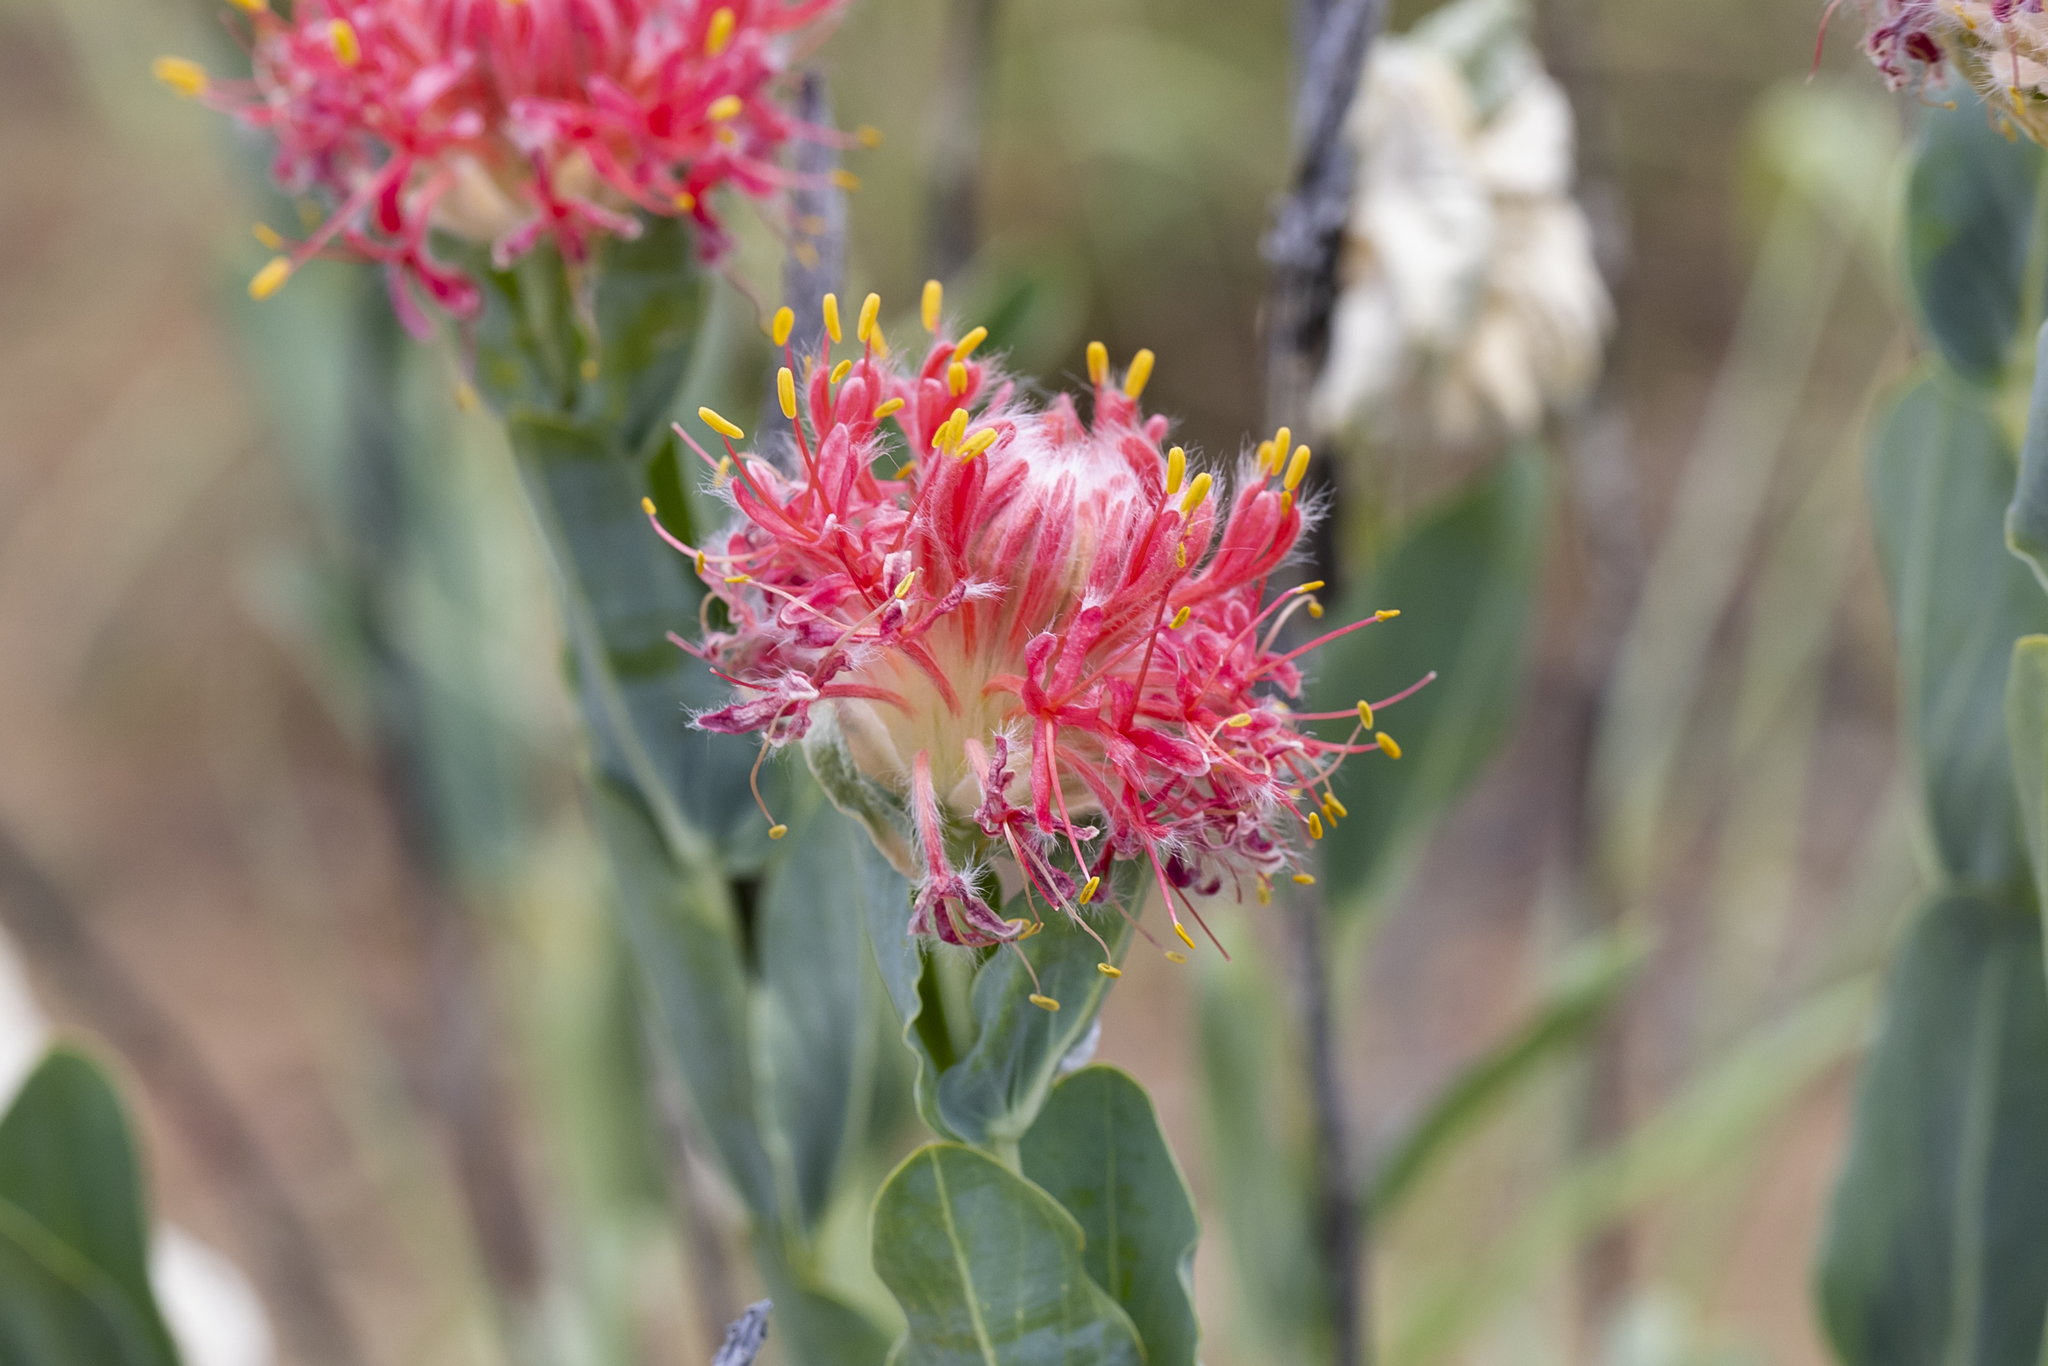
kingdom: Plantae
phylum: Tracheophyta
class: Magnoliopsida
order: Malvales
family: Thymelaeaceae
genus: Pimelea
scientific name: Pimelea decora
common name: Flinders-poppy
